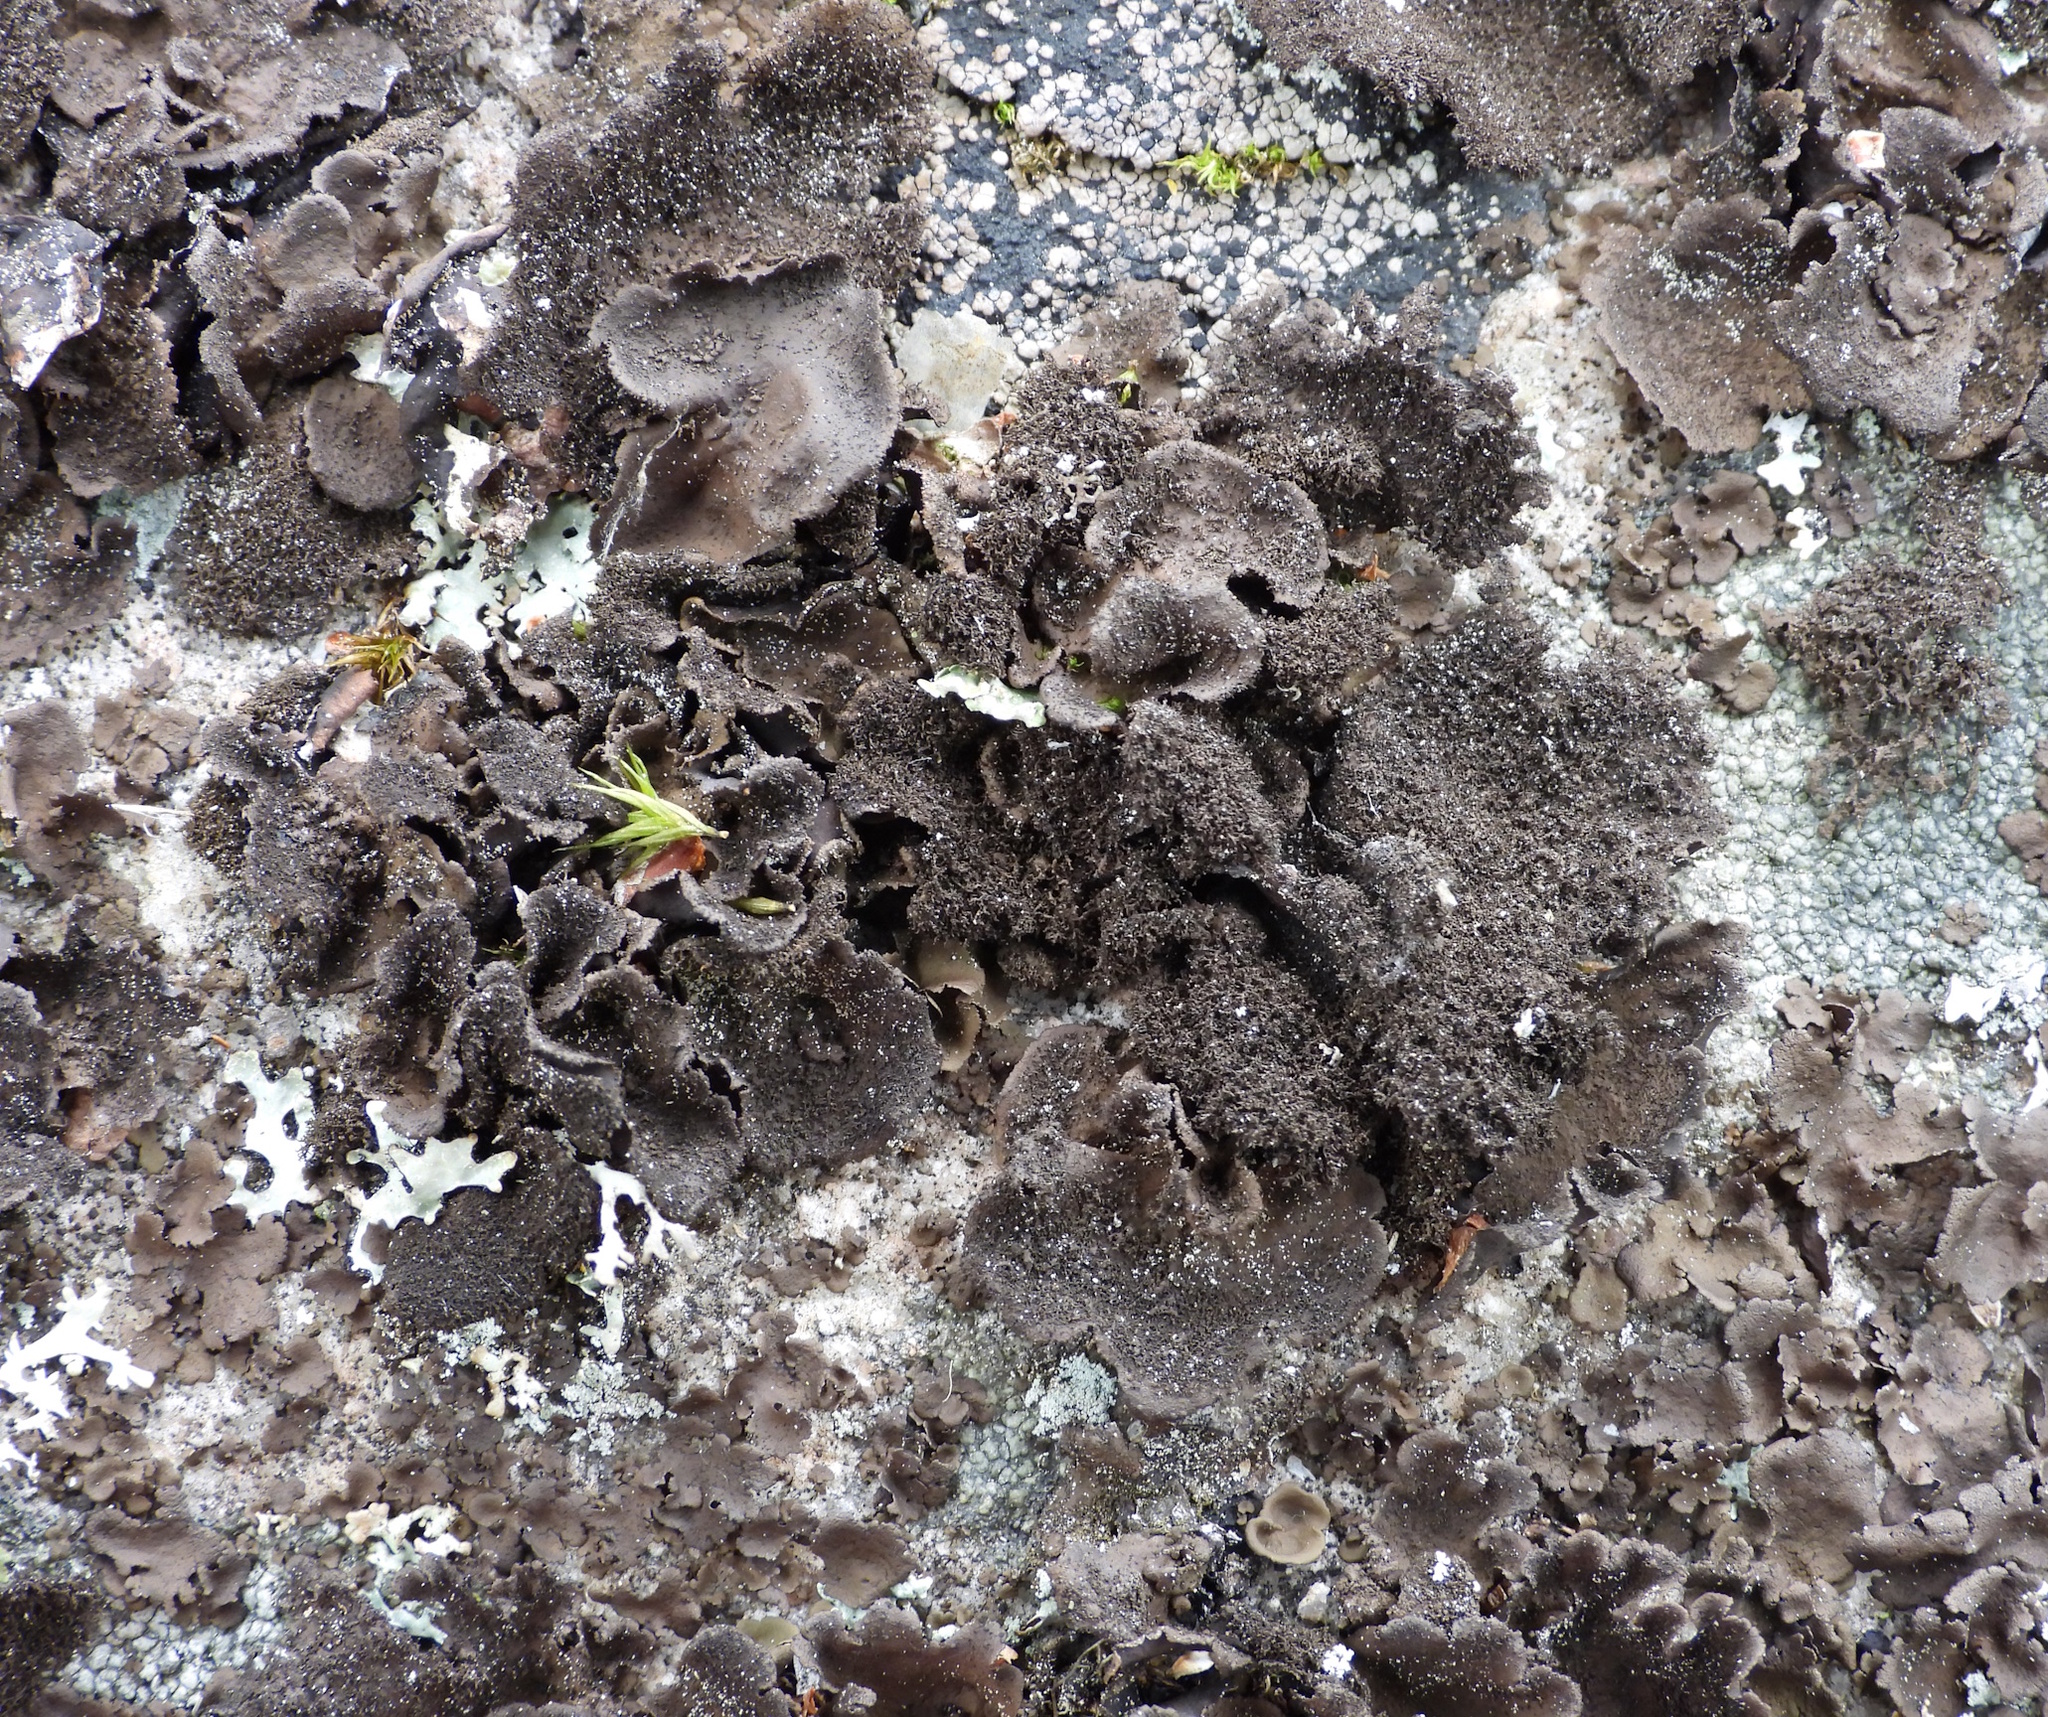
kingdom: Fungi
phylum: Ascomycota
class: Lecanoromycetes
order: Umbilicariales
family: Umbilicariaceae
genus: Umbilicaria
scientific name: Umbilicaria deusta
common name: Peppered rock tripe
